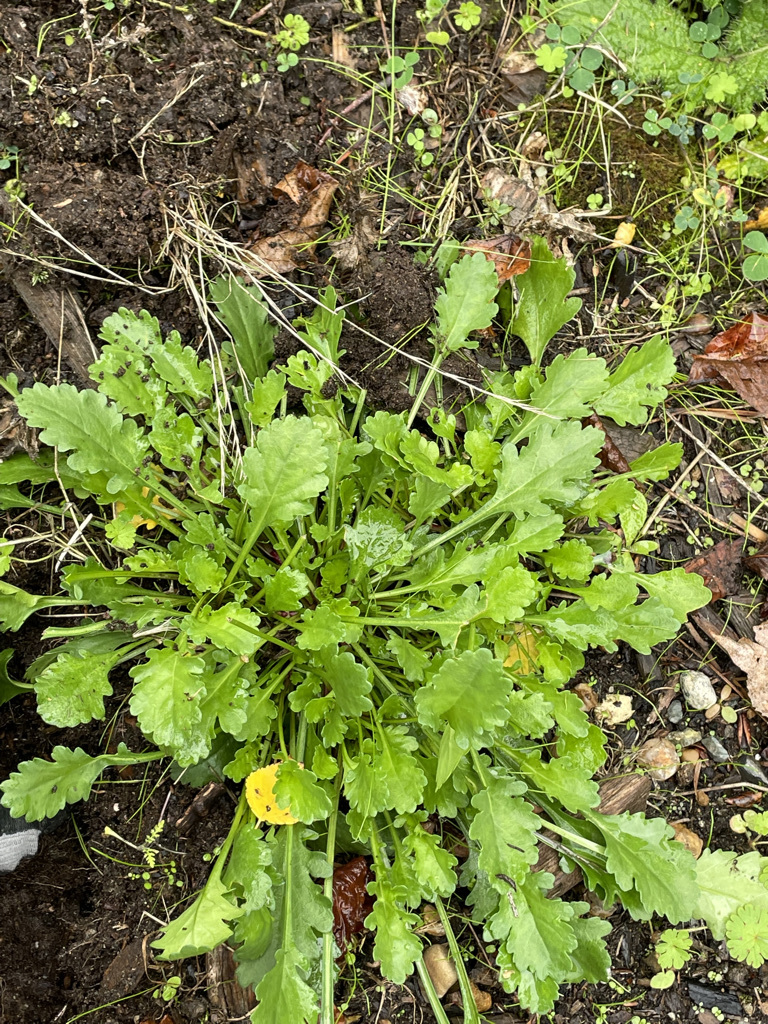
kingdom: Plantae
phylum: Tracheophyta
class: Magnoliopsida
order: Asterales
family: Asteraceae
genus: Leucanthemum
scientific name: Leucanthemum vulgare
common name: Oxeye daisy
